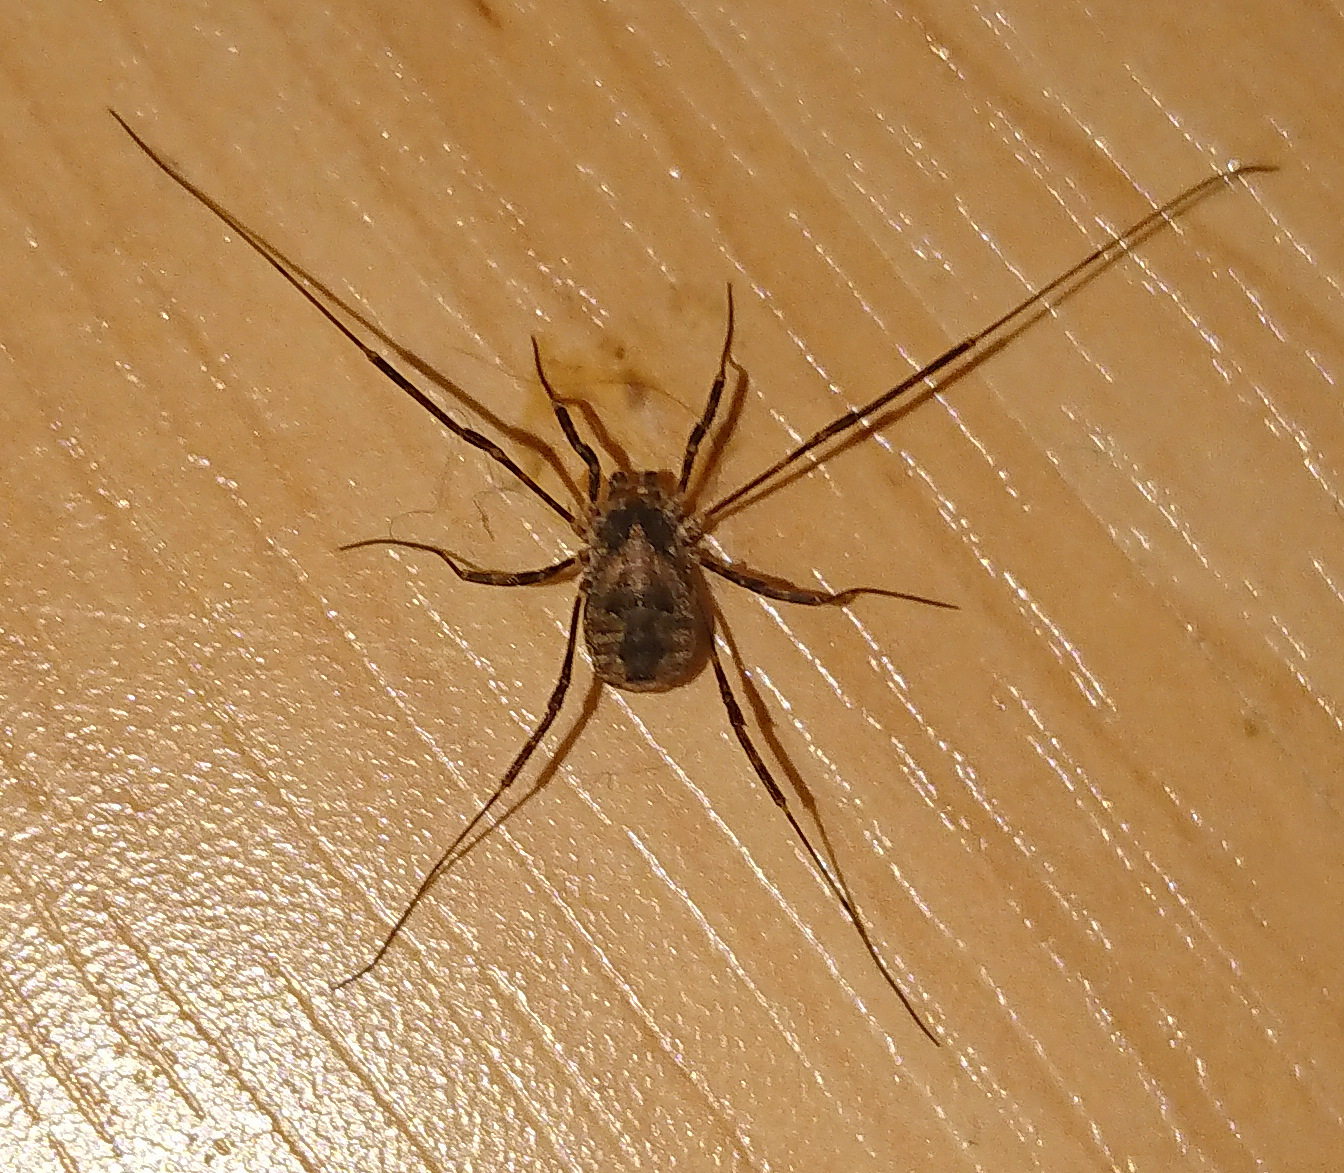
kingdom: Animalia
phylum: Arthropoda
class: Arachnida
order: Opiliones
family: Phalangiidae
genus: Odiellus
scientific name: Odiellus pictus
